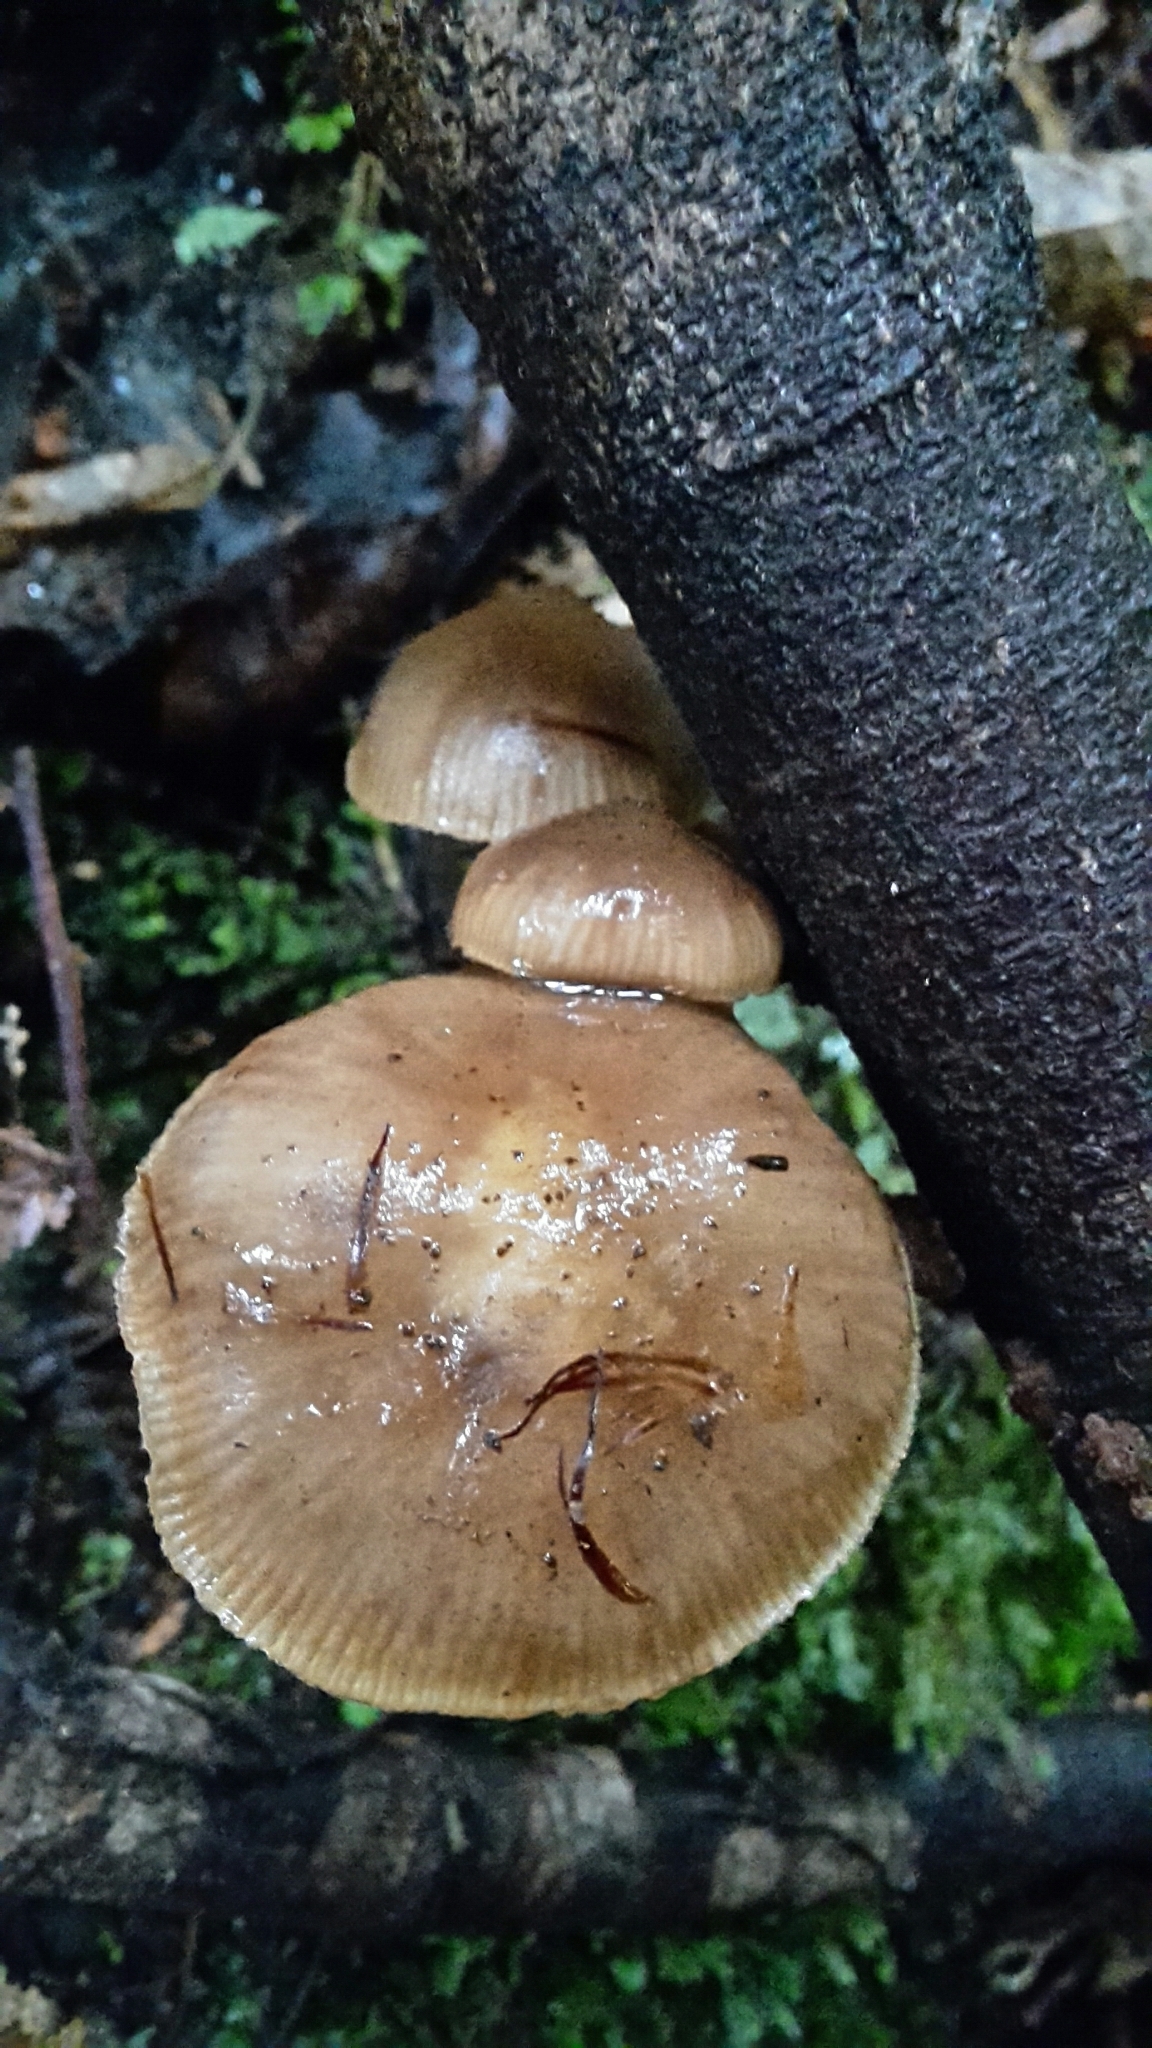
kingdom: Fungi
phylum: Basidiomycota
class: Agaricomycetes
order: Agaricales
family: Physalacriaceae
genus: Armillaria
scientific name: Armillaria novae-zelandiae
